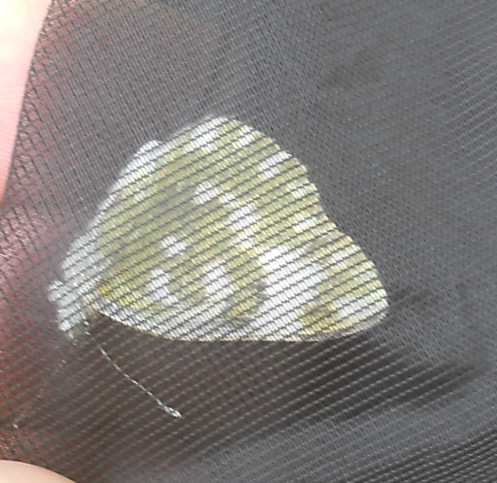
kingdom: Animalia
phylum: Arthropoda
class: Insecta
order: Lepidoptera
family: Pieridae
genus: Pontia
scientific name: Pontia edusa
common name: Eastern bath white
